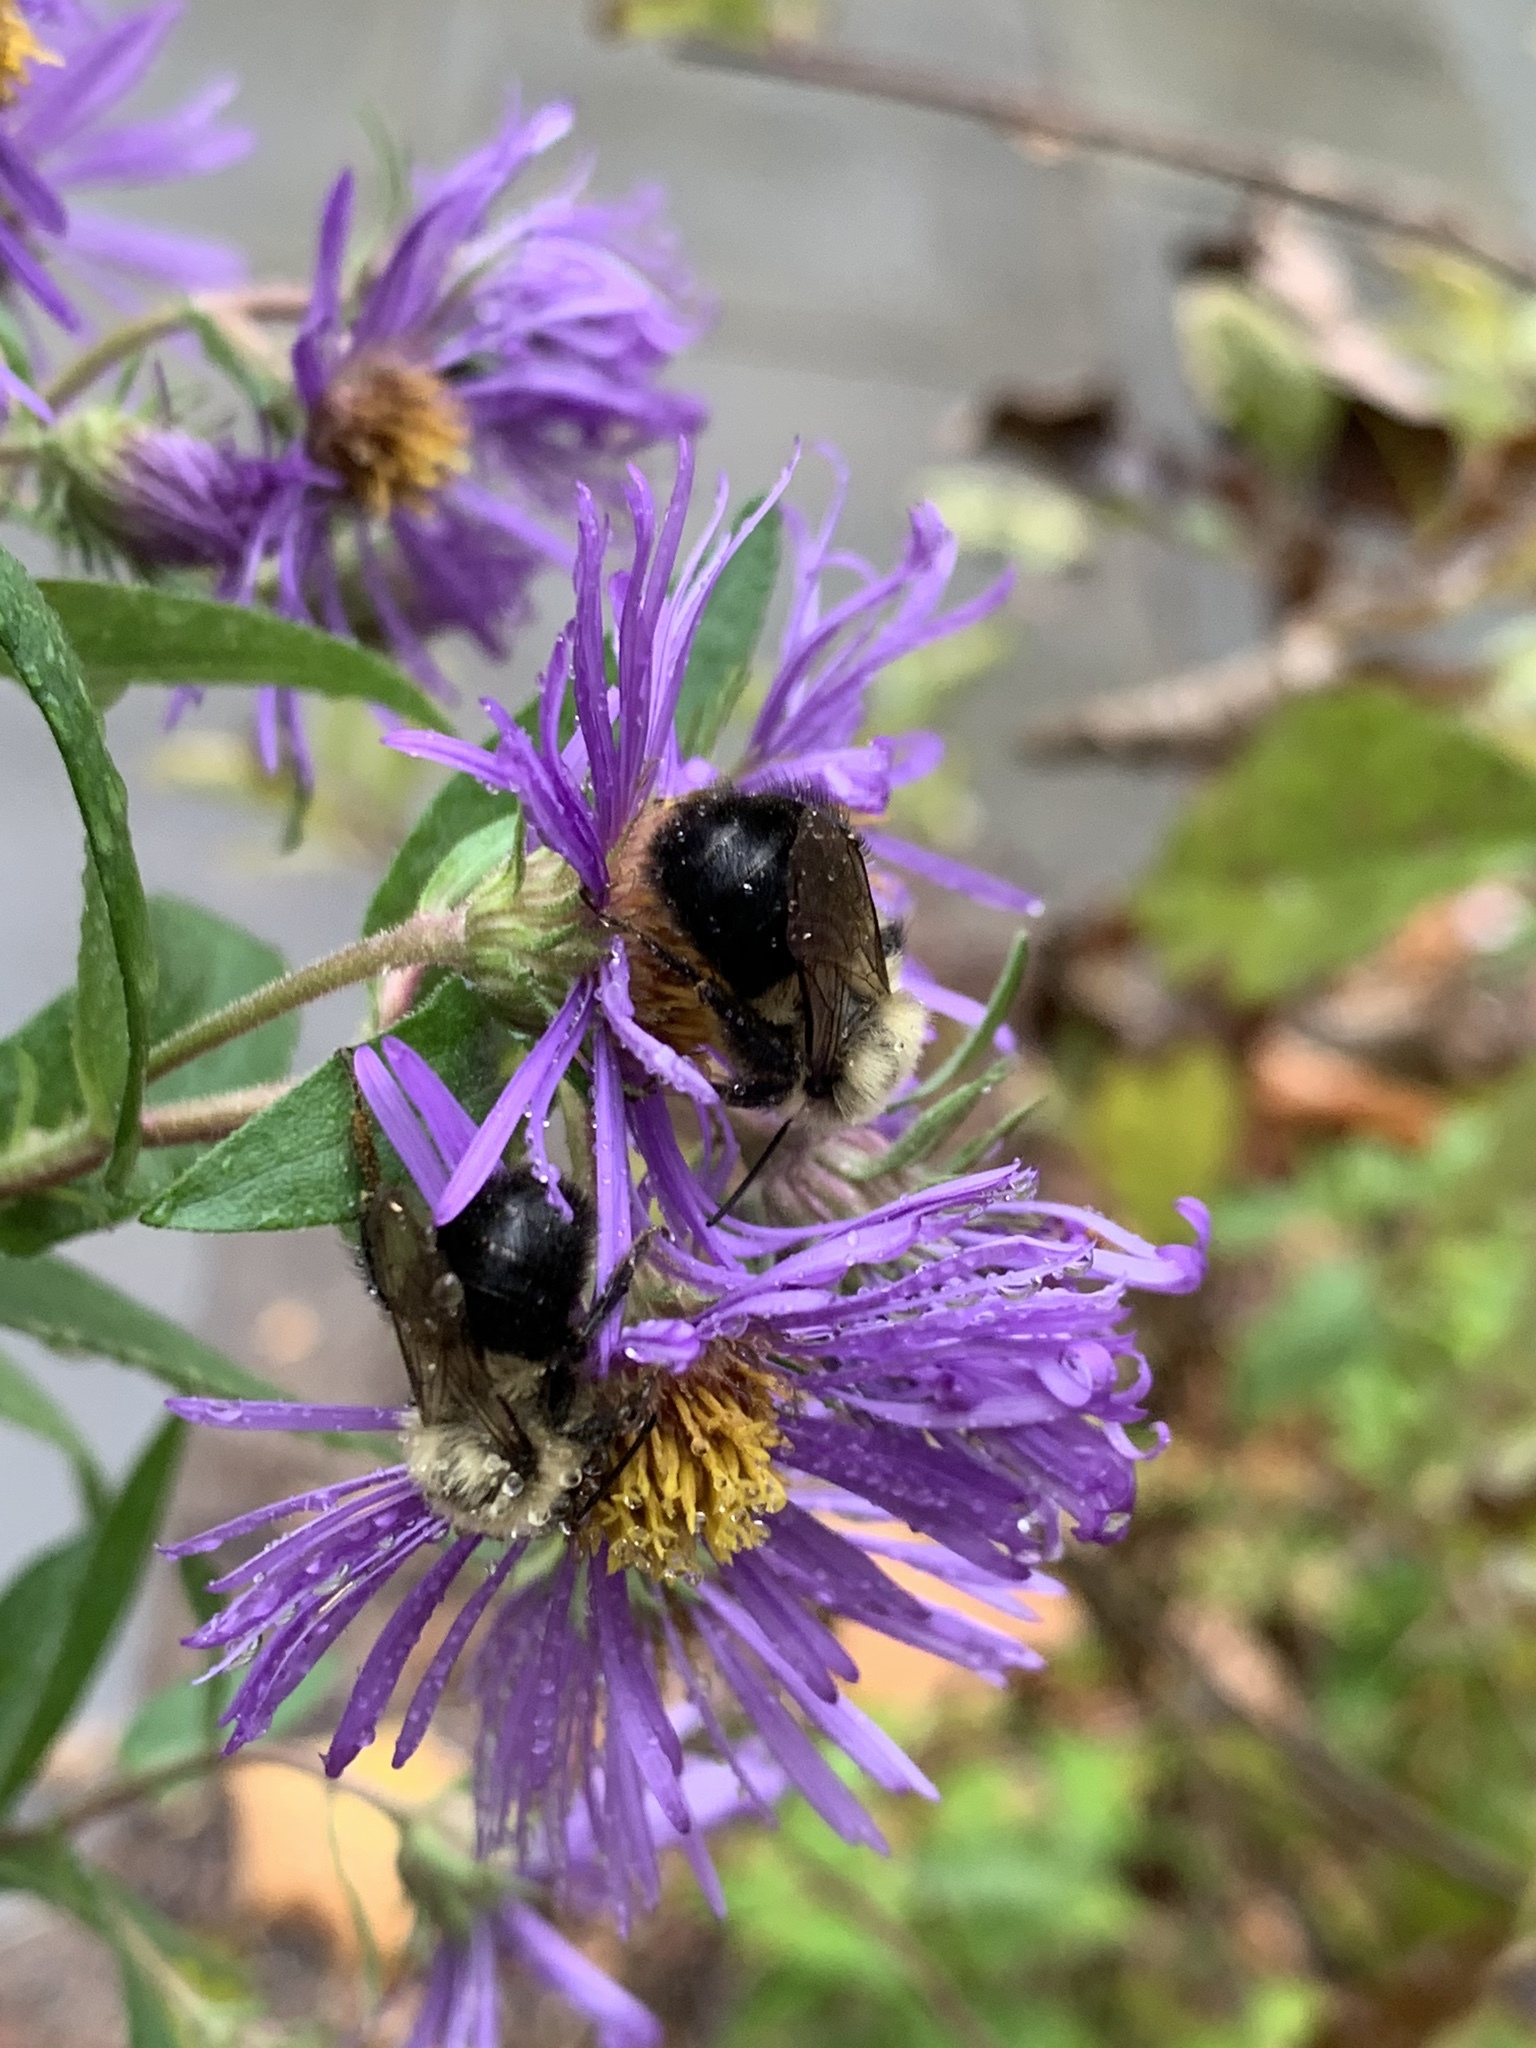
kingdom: Animalia
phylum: Arthropoda
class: Insecta
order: Hymenoptera
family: Apidae
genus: Bombus
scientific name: Bombus impatiens
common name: Common eastern bumble bee
